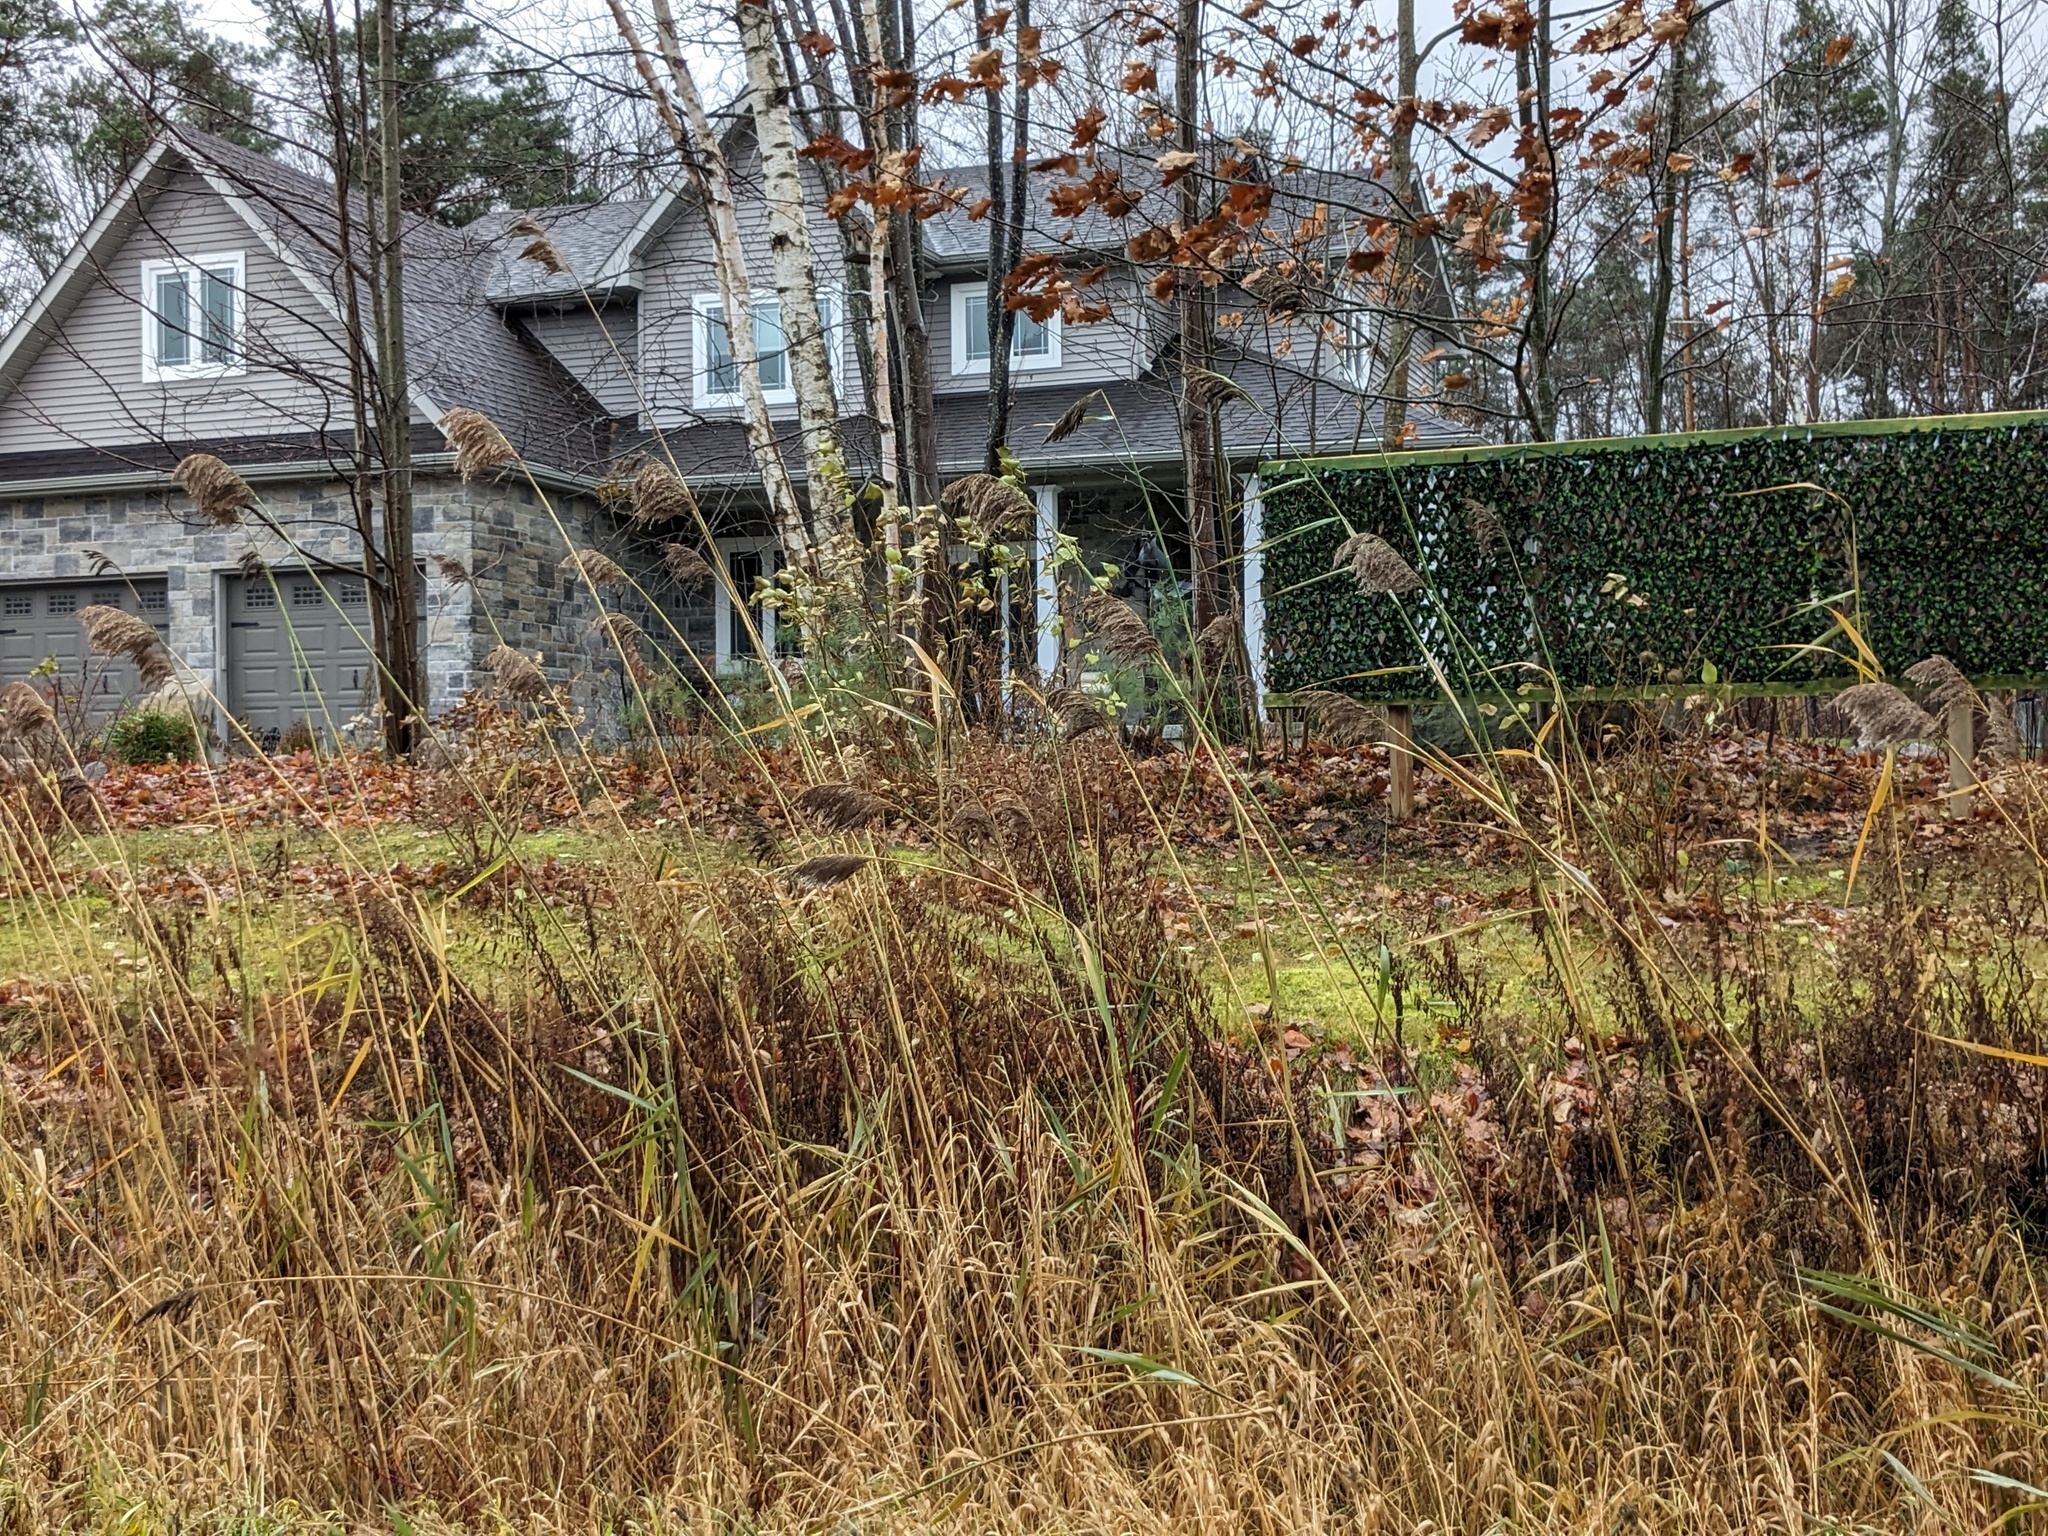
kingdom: Plantae
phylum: Tracheophyta
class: Liliopsida
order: Poales
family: Poaceae
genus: Phragmites
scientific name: Phragmites australis
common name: Common reed
